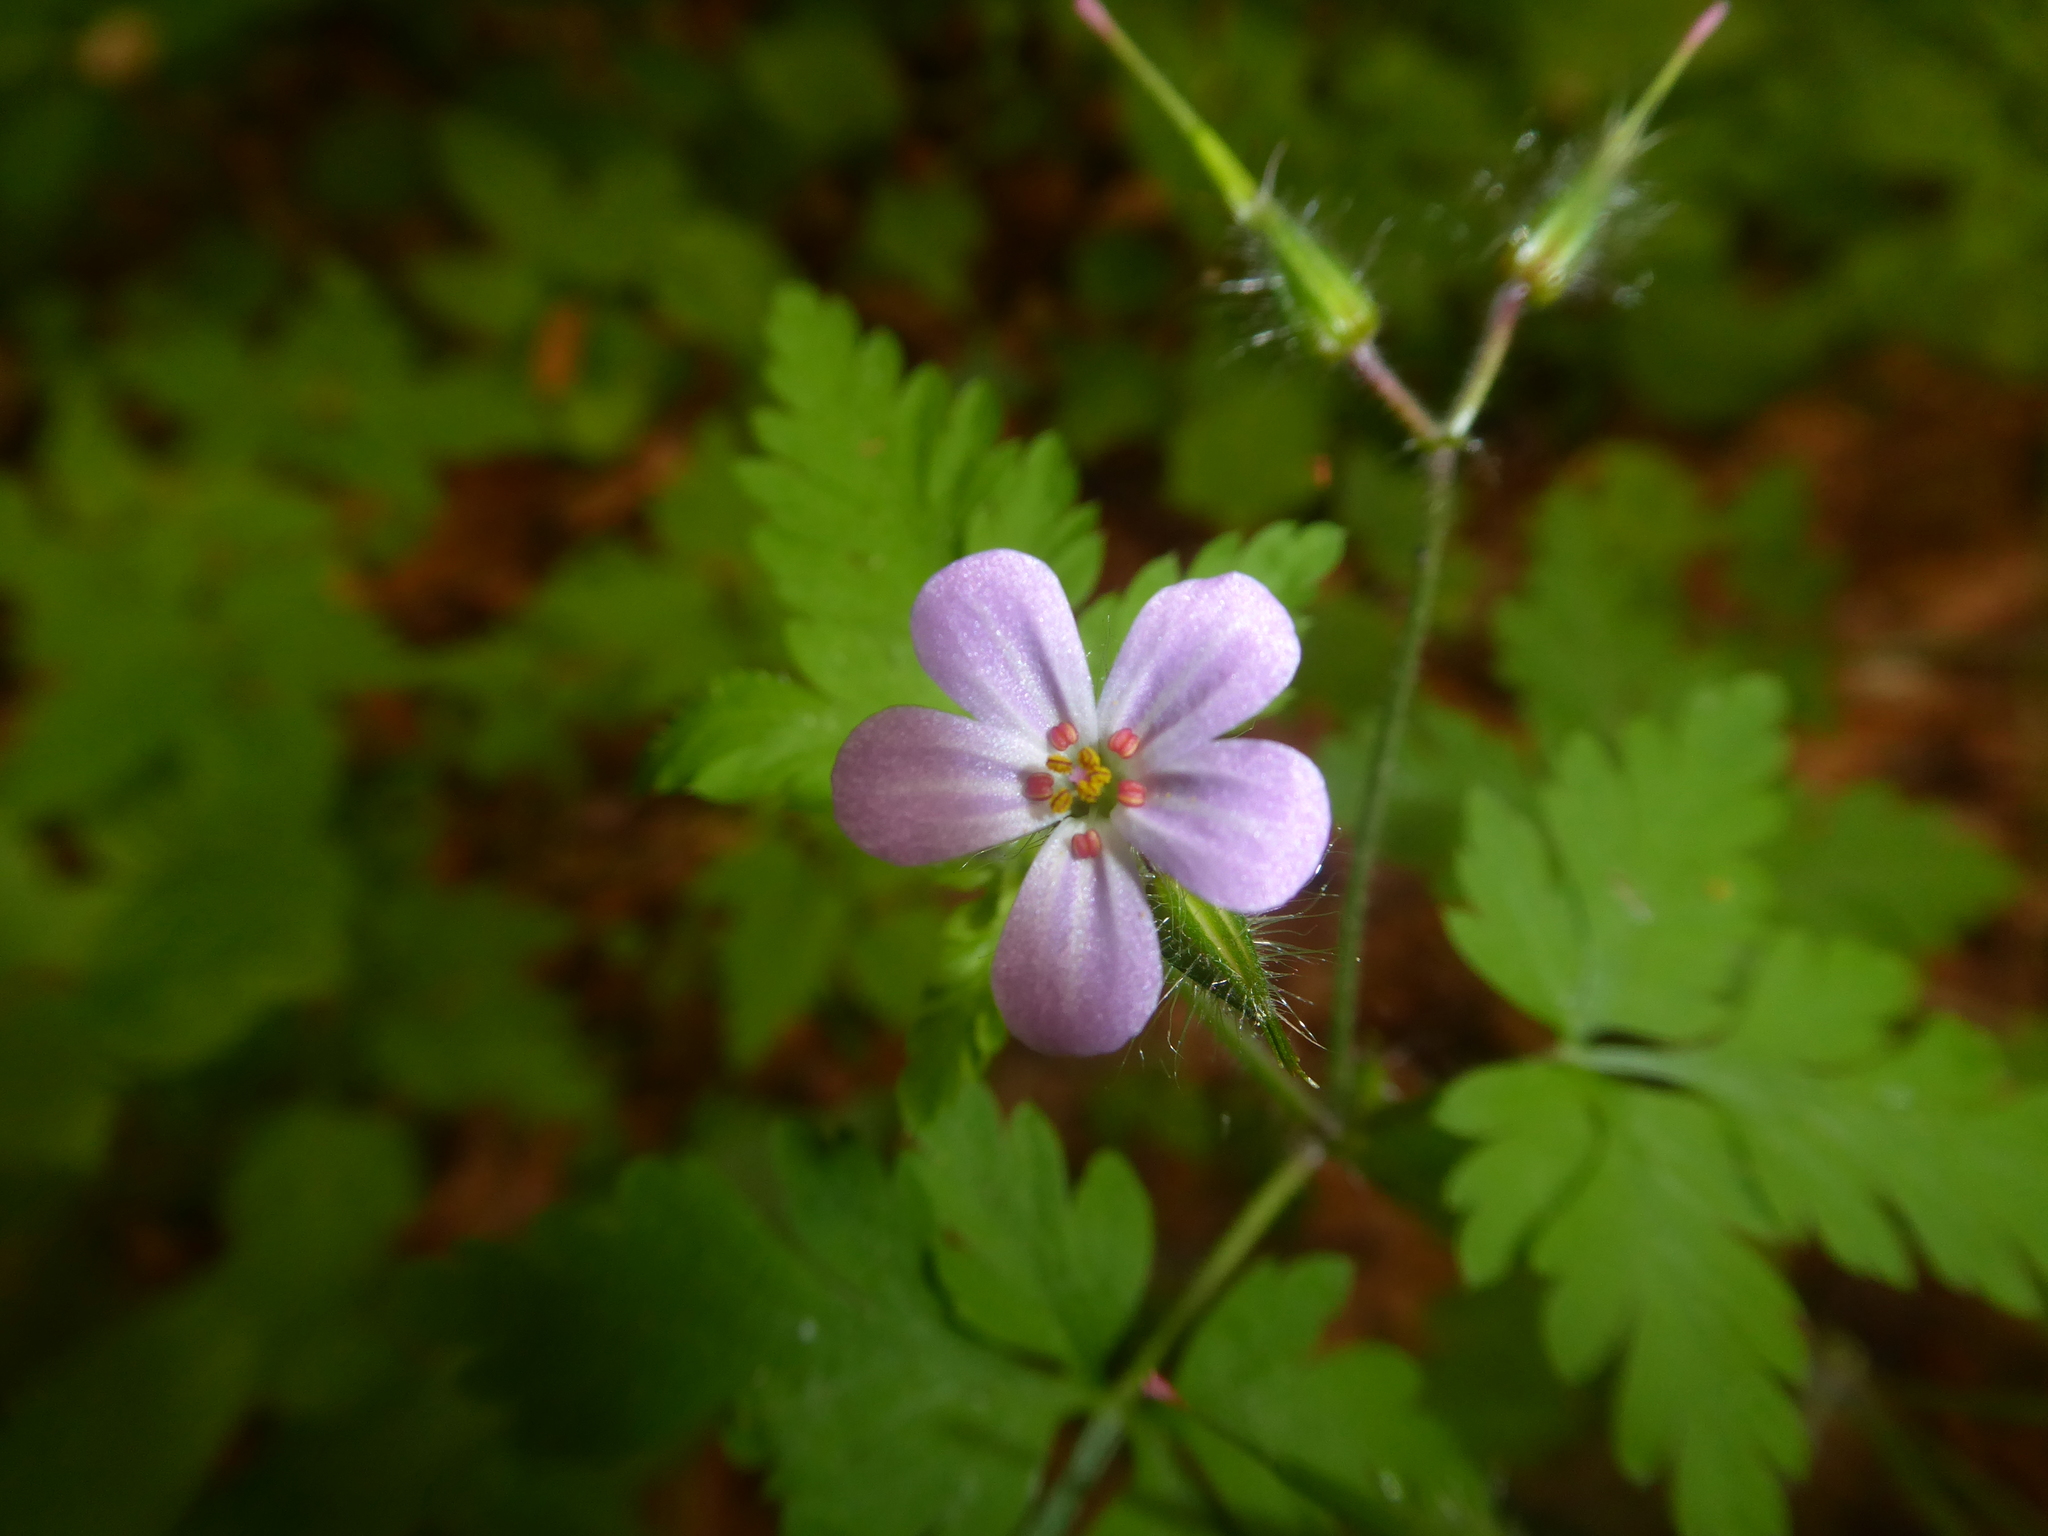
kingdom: Plantae
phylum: Tracheophyta
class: Magnoliopsida
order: Geraniales
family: Geraniaceae
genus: Geranium
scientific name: Geranium robertianum
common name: Herb-robert
